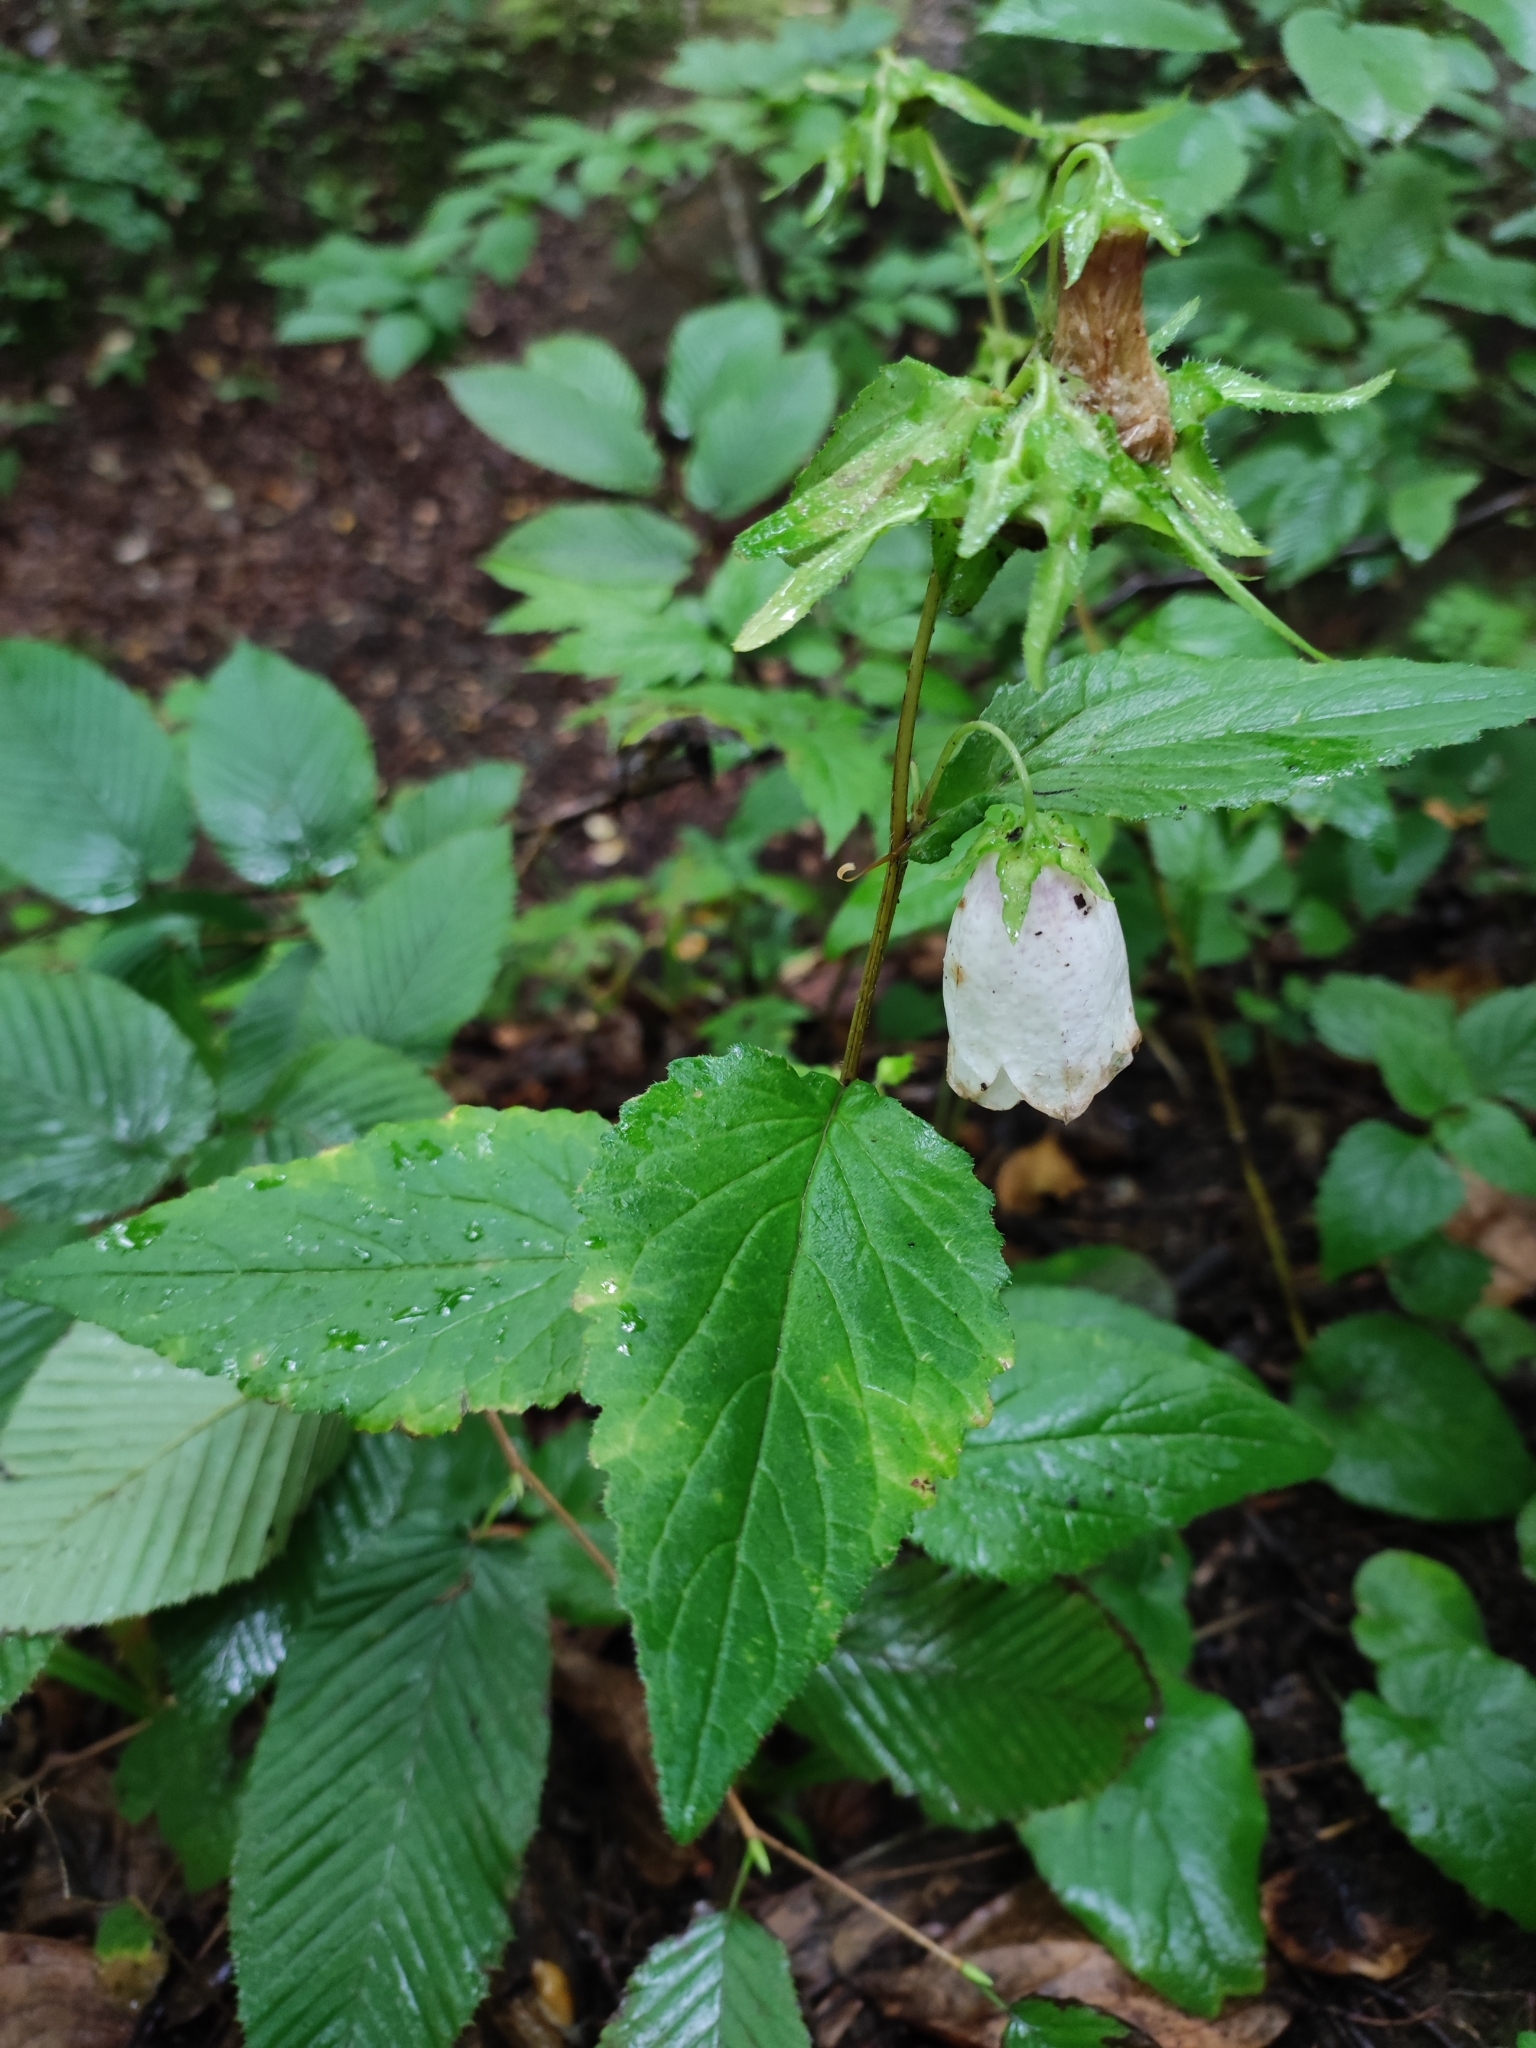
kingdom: Plantae
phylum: Tracheophyta
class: Magnoliopsida
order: Asterales
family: Campanulaceae
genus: Campanula
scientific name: Campanula punctata
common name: Spotted bellflower
